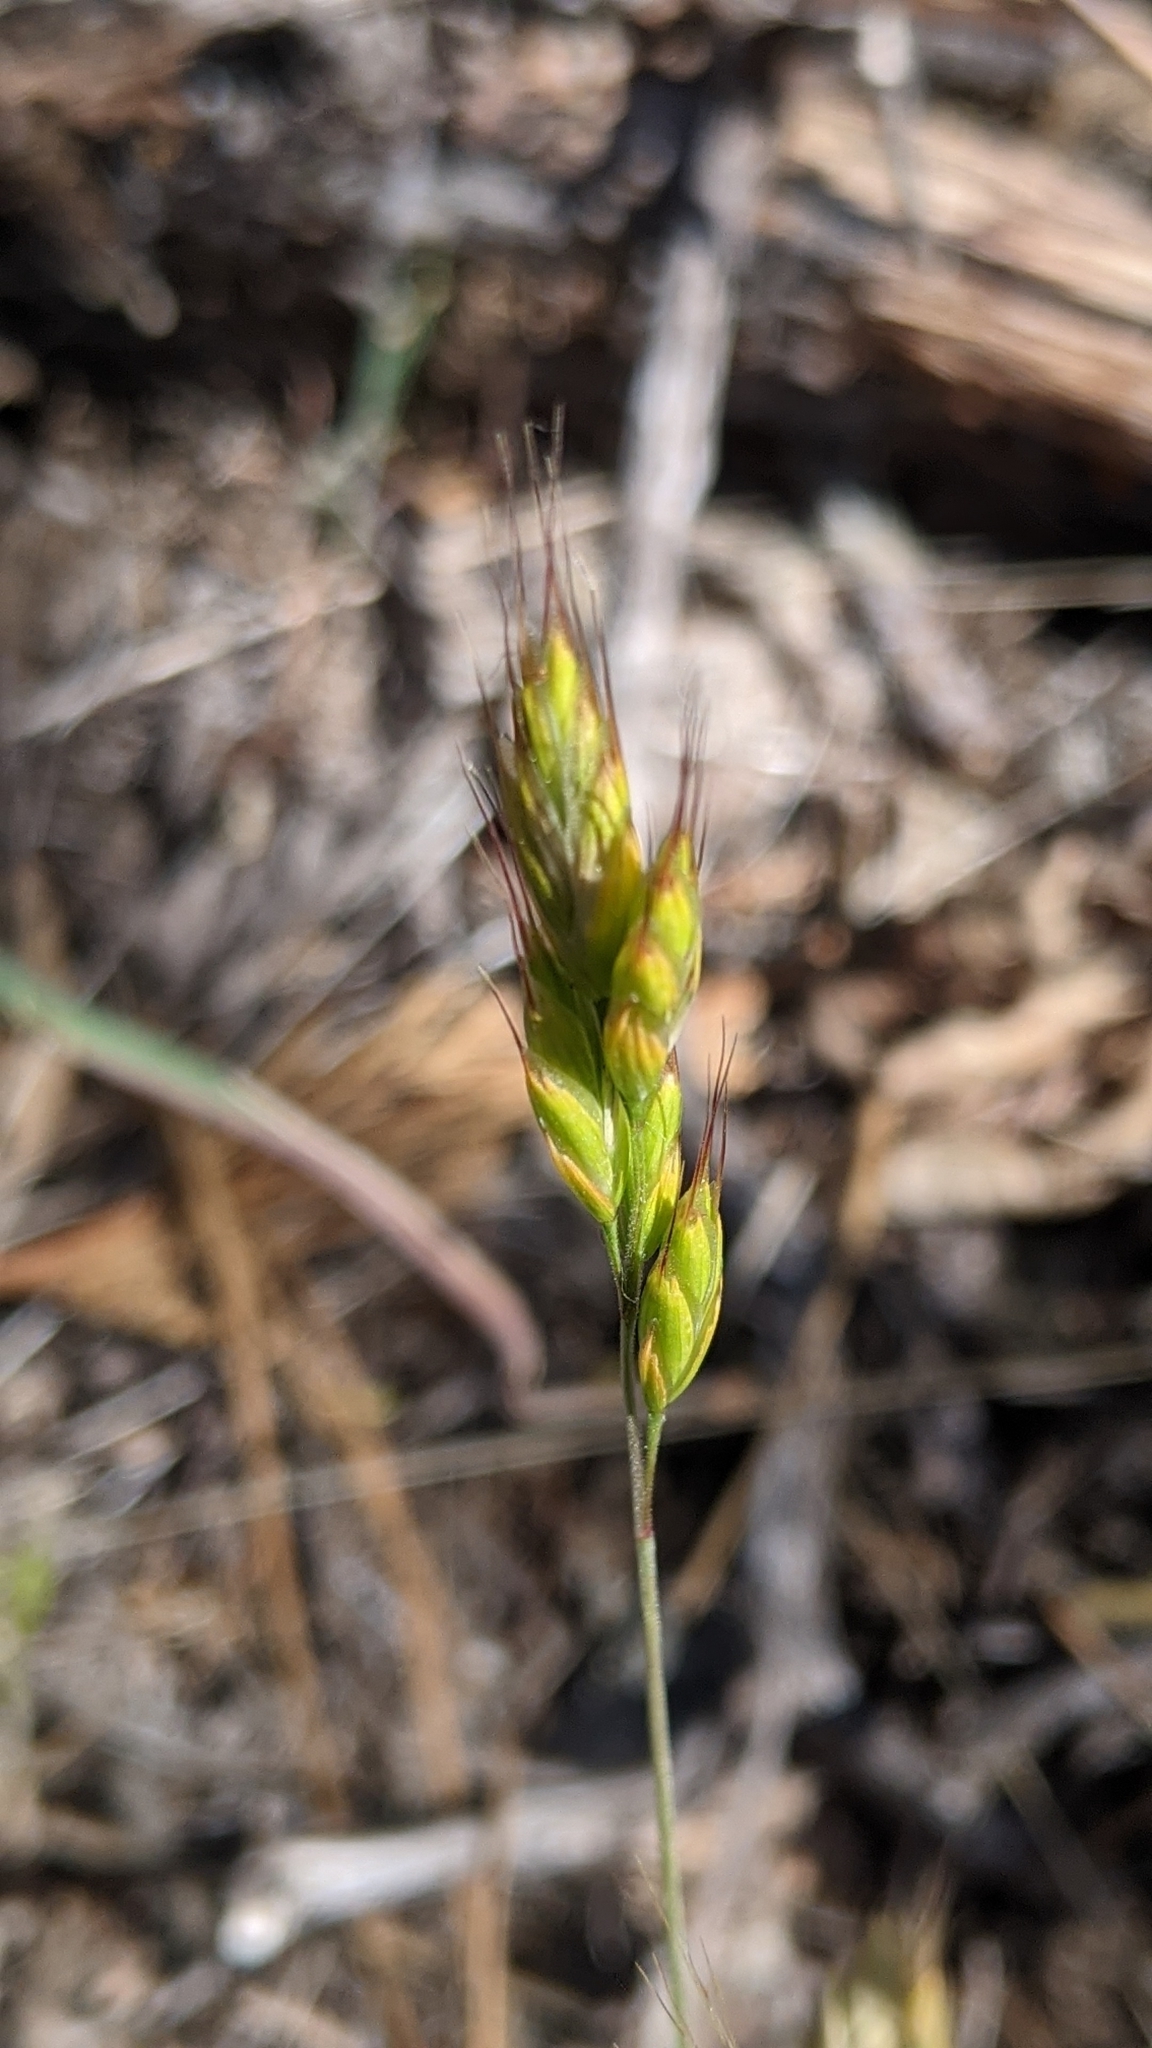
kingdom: Plantae
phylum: Tracheophyta
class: Liliopsida
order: Poales
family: Poaceae
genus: Bromus
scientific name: Bromus hordeaceus
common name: Soft brome
